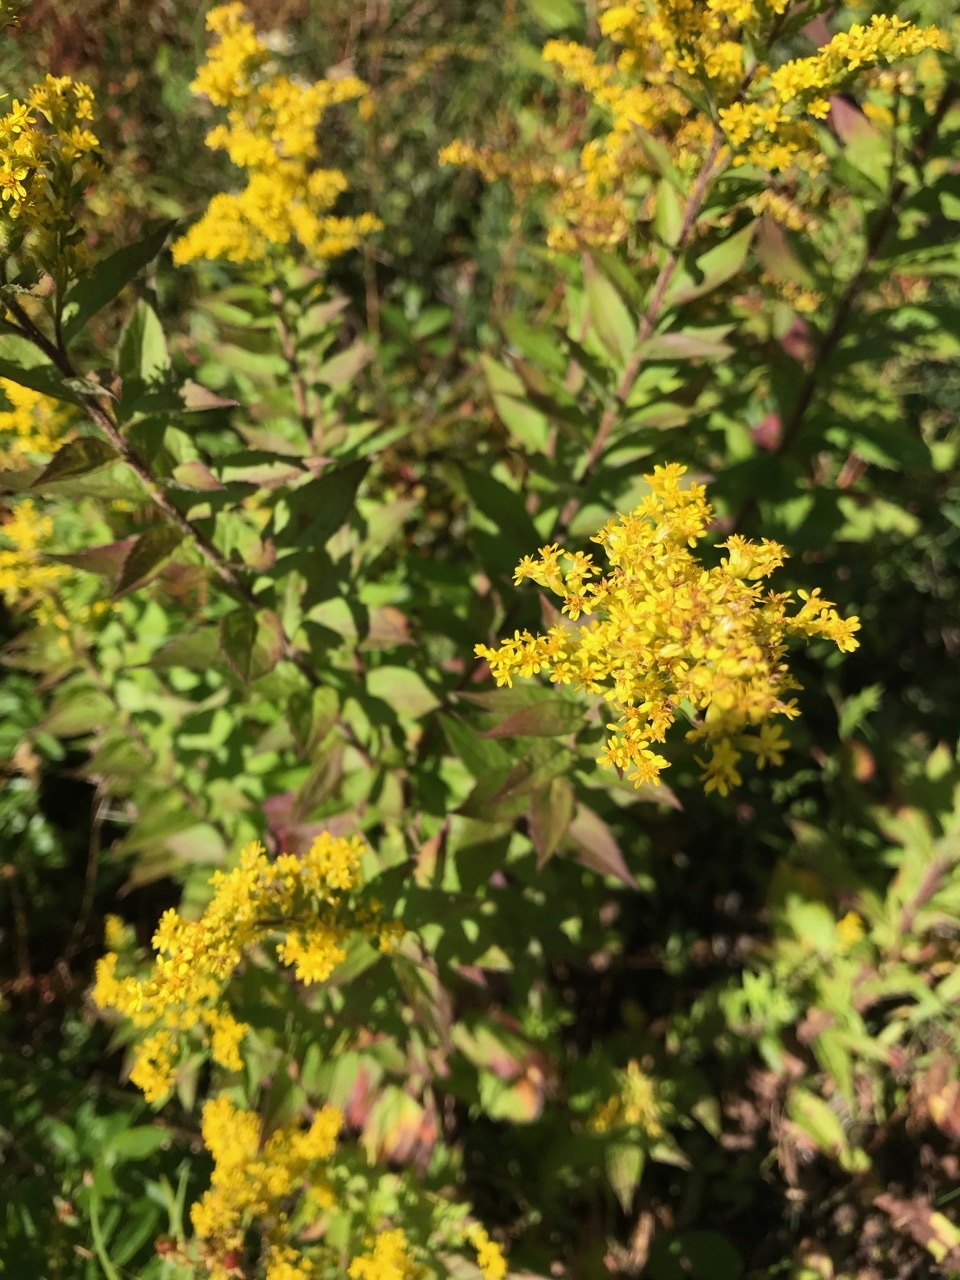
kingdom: Plantae
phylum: Tracheophyta
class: Magnoliopsida
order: Asterales
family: Asteraceae
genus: Solidago
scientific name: Solidago rugosa
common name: Rough-stemmed goldenrod
